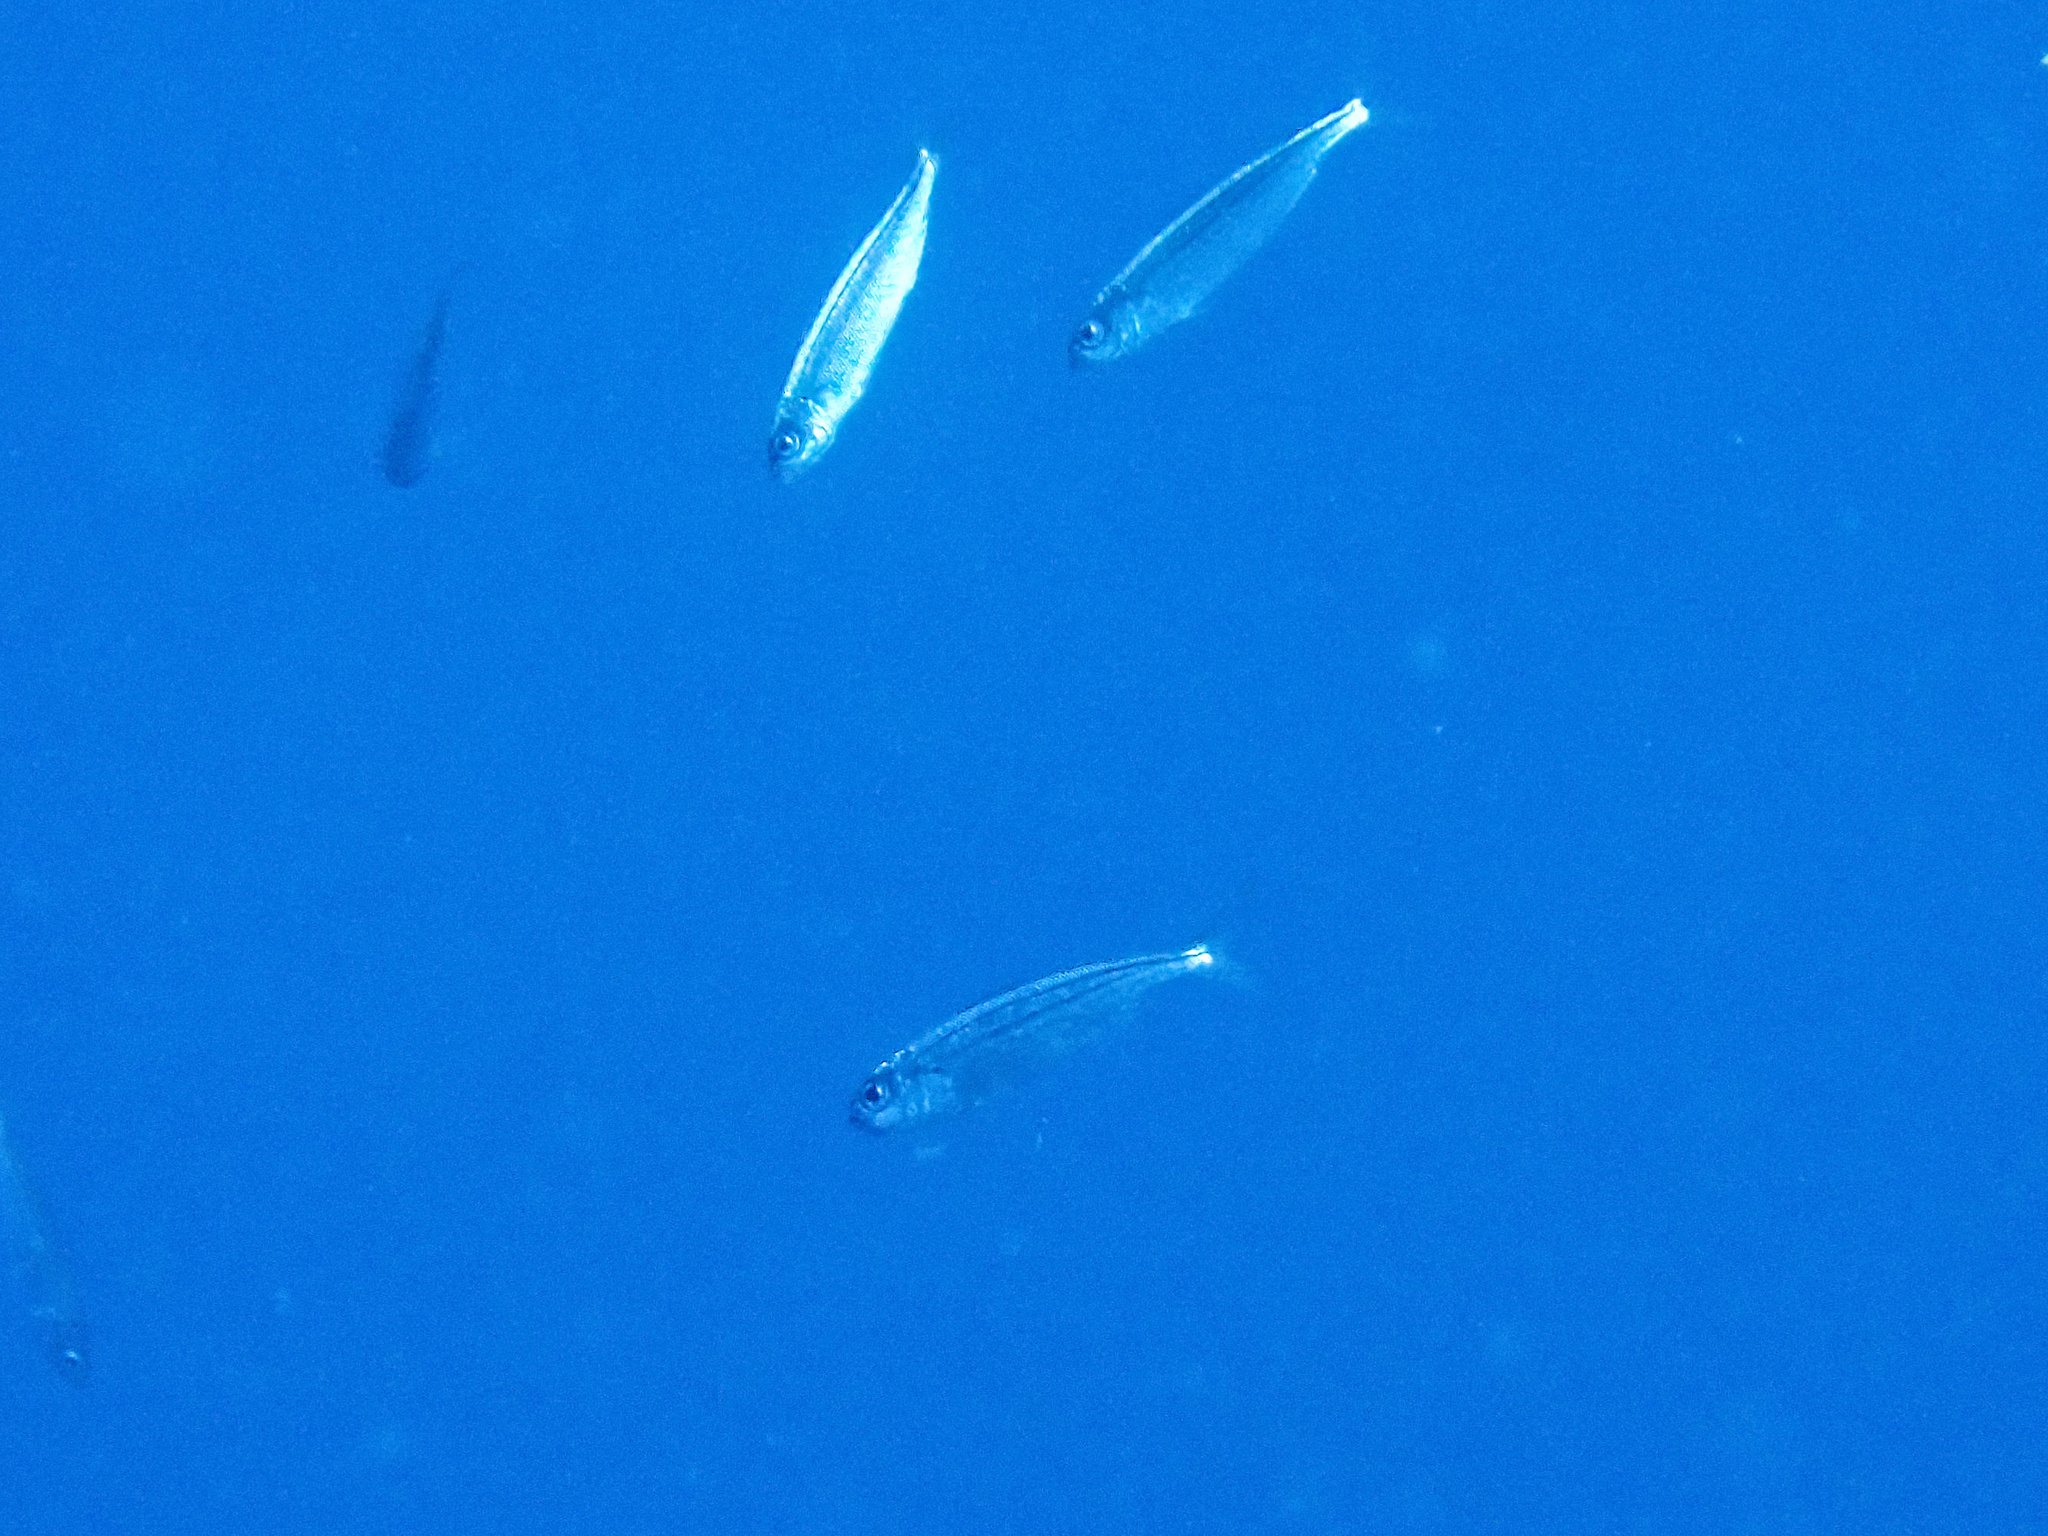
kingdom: Animalia
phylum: Chordata
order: Perciformes
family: Sparidae
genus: Boops
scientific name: Boops boops
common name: Bogue
